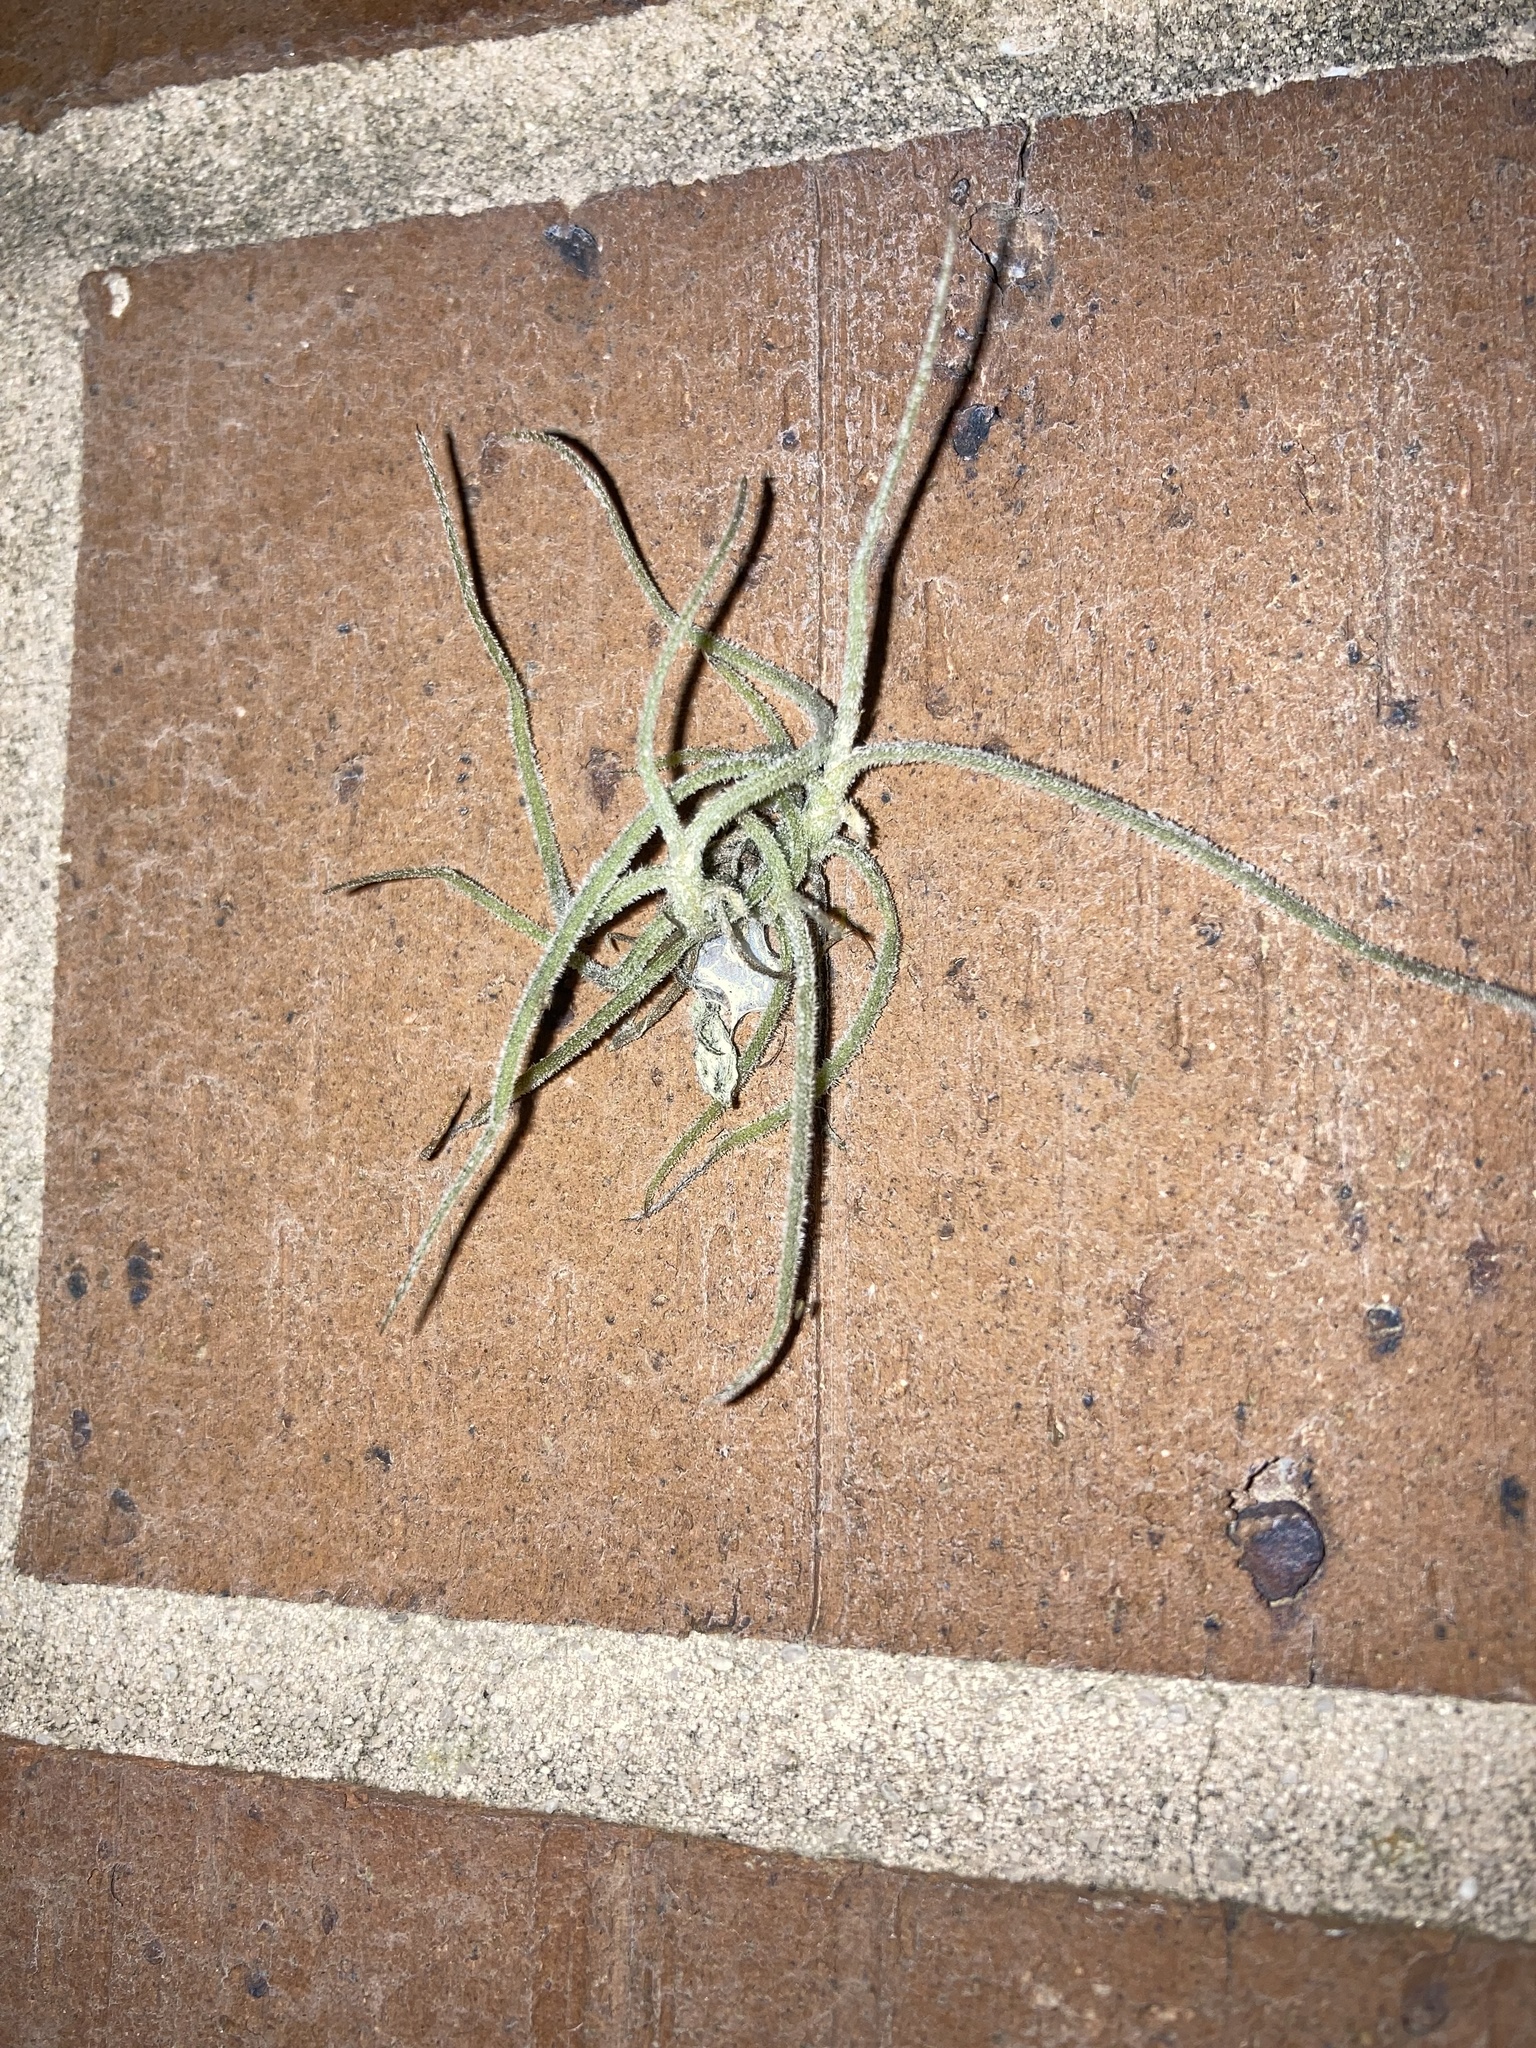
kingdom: Plantae
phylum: Tracheophyta
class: Liliopsida
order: Poales
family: Bromeliaceae
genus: Tillandsia
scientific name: Tillandsia recurvata
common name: Small ballmoss
